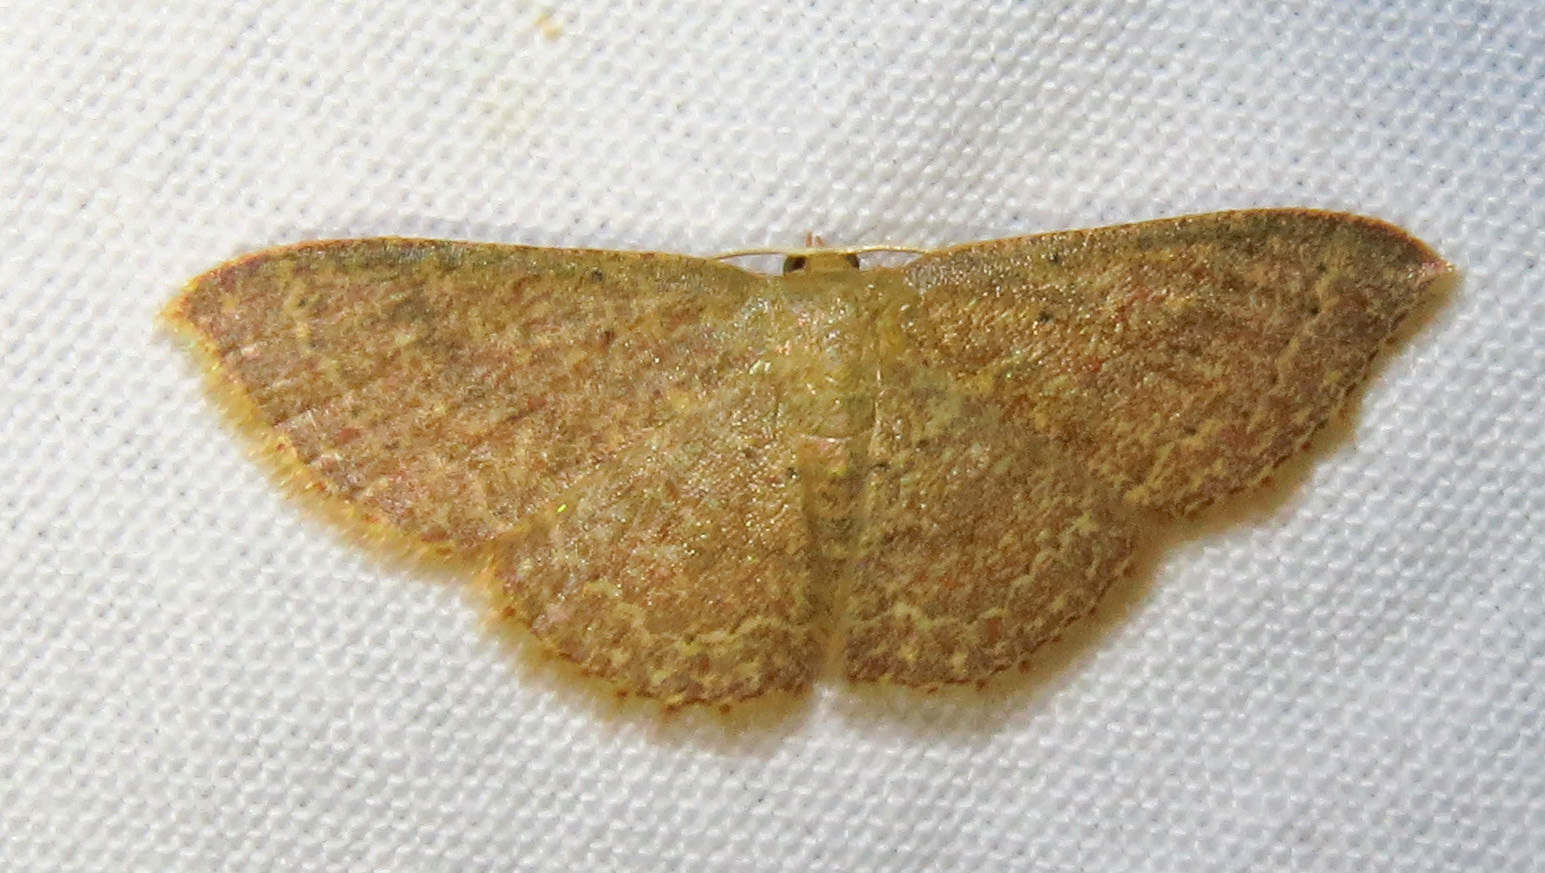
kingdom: Animalia
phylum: Arthropoda
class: Insecta
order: Lepidoptera
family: Geometridae
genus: Pleuroprucha
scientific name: Pleuroprucha insulsaria
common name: Common tan wave
